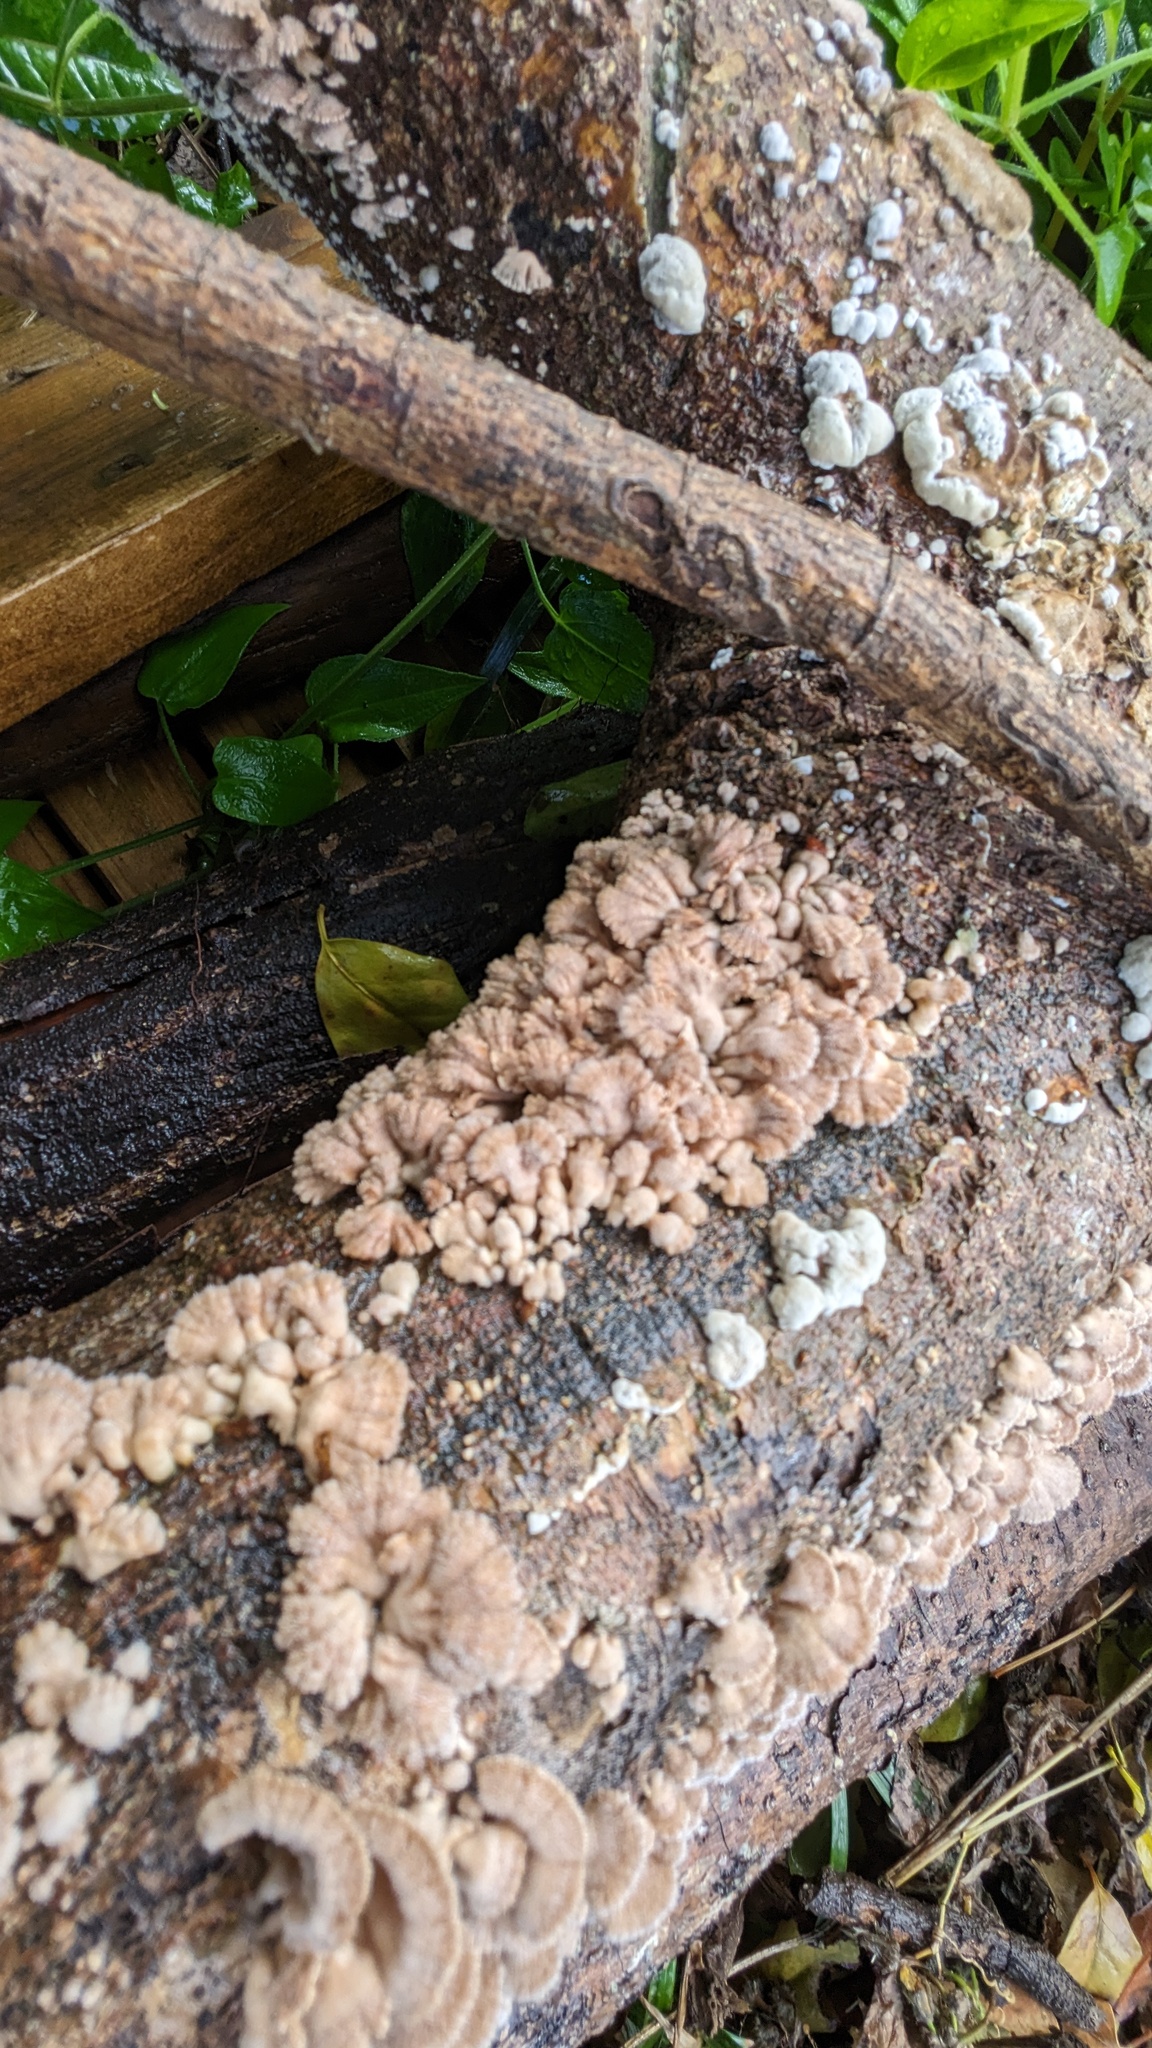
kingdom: Fungi
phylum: Basidiomycota
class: Agaricomycetes
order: Agaricales
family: Schizophyllaceae
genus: Schizophyllum
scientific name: Schizophyllum commune
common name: Common porecrust
